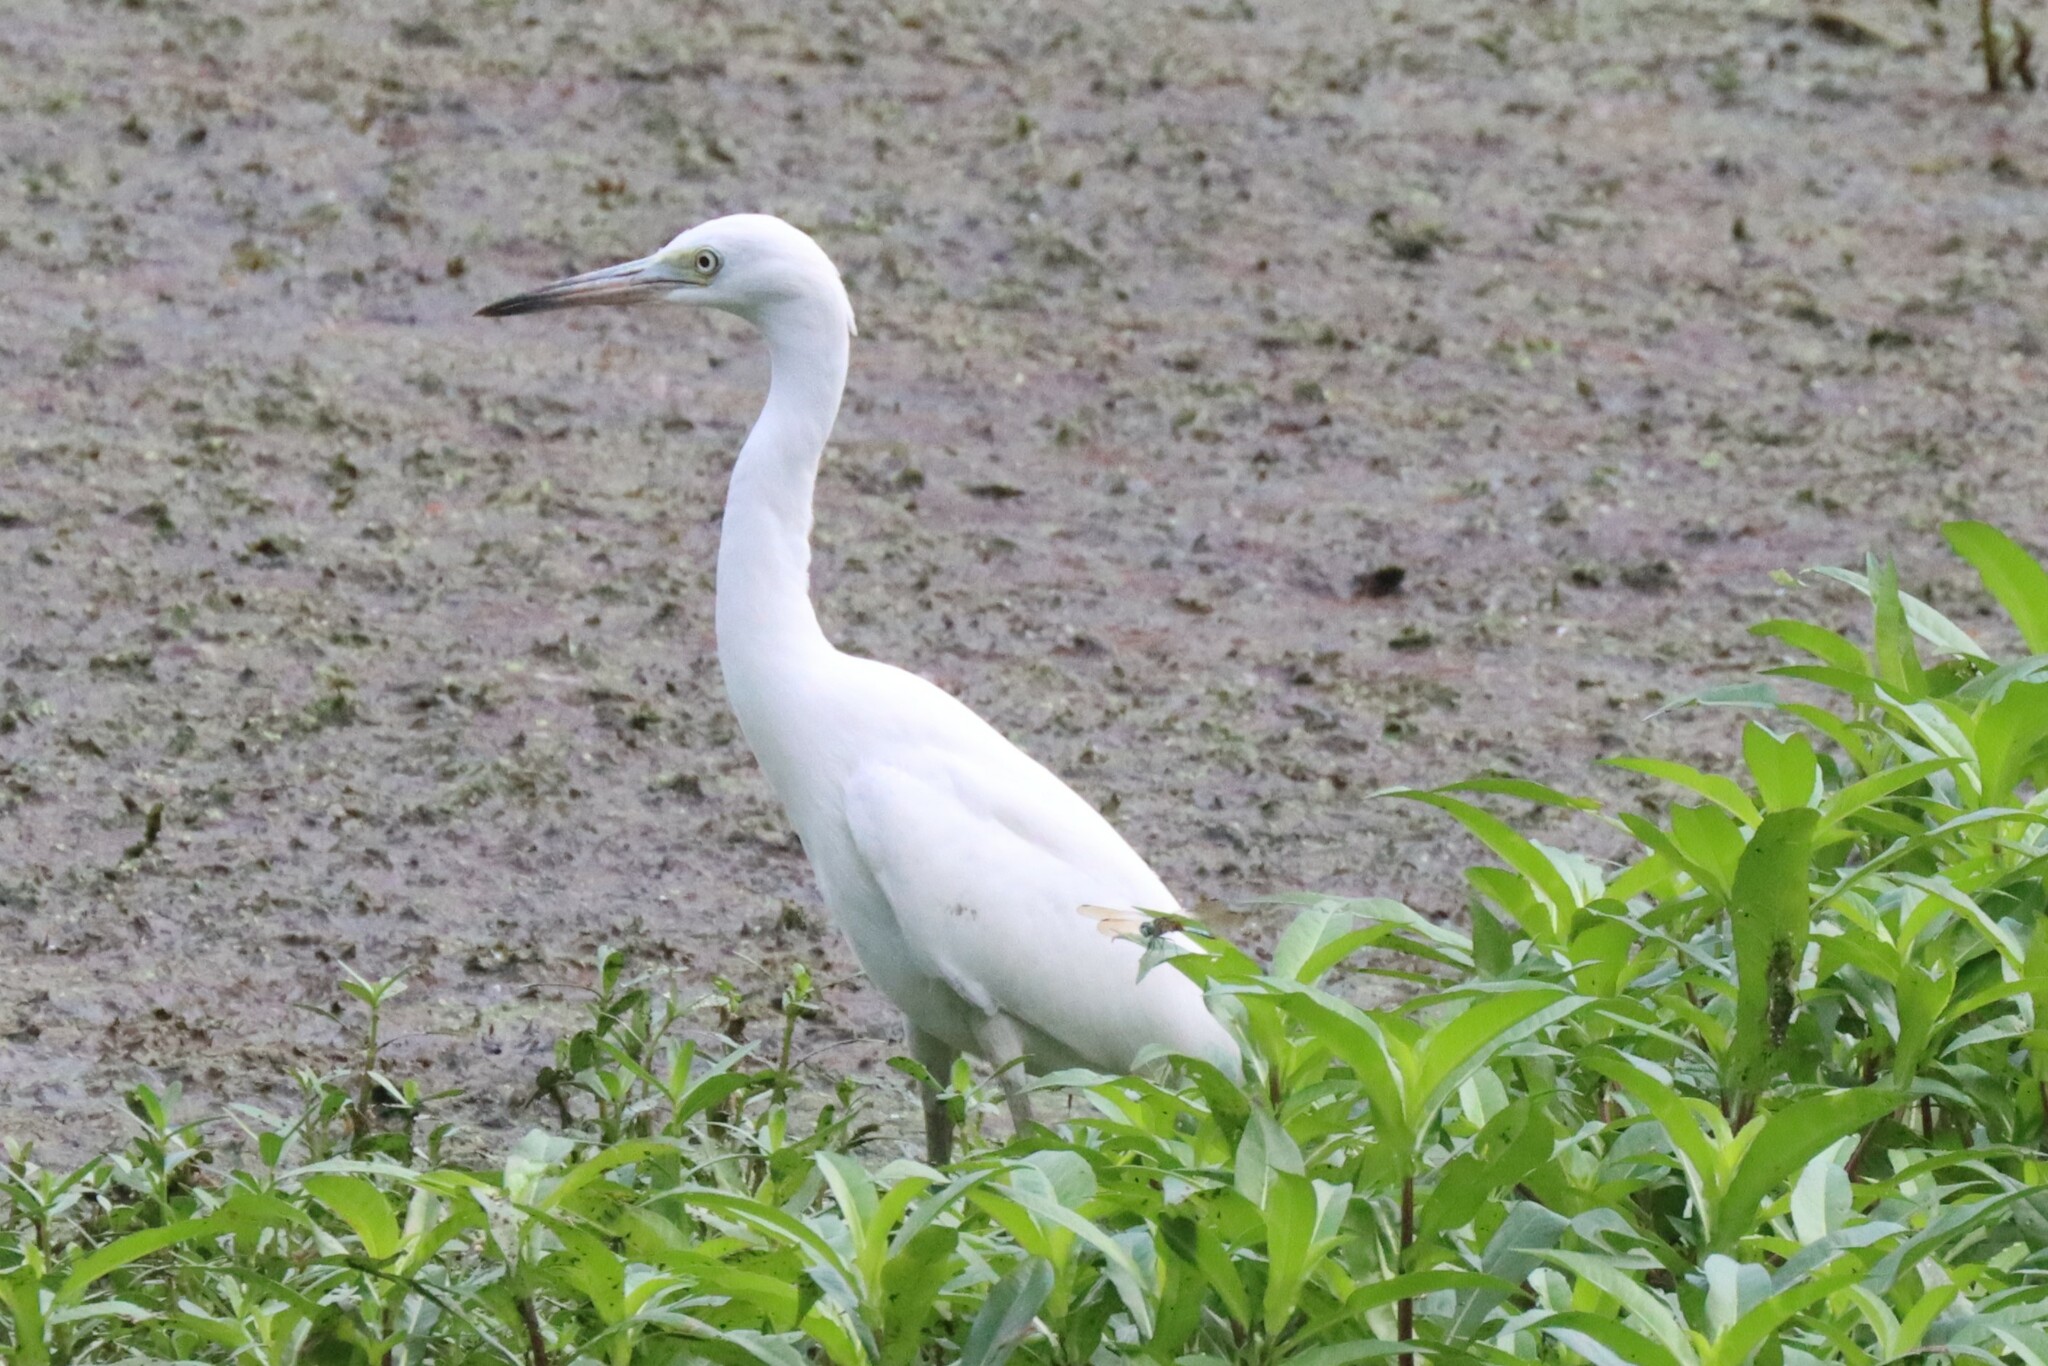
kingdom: Animalia
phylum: Chordata
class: Aves
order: Pelecaniformes
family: Ardeidae
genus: Egretta
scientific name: Egretta caerulea
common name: Little blue heron
